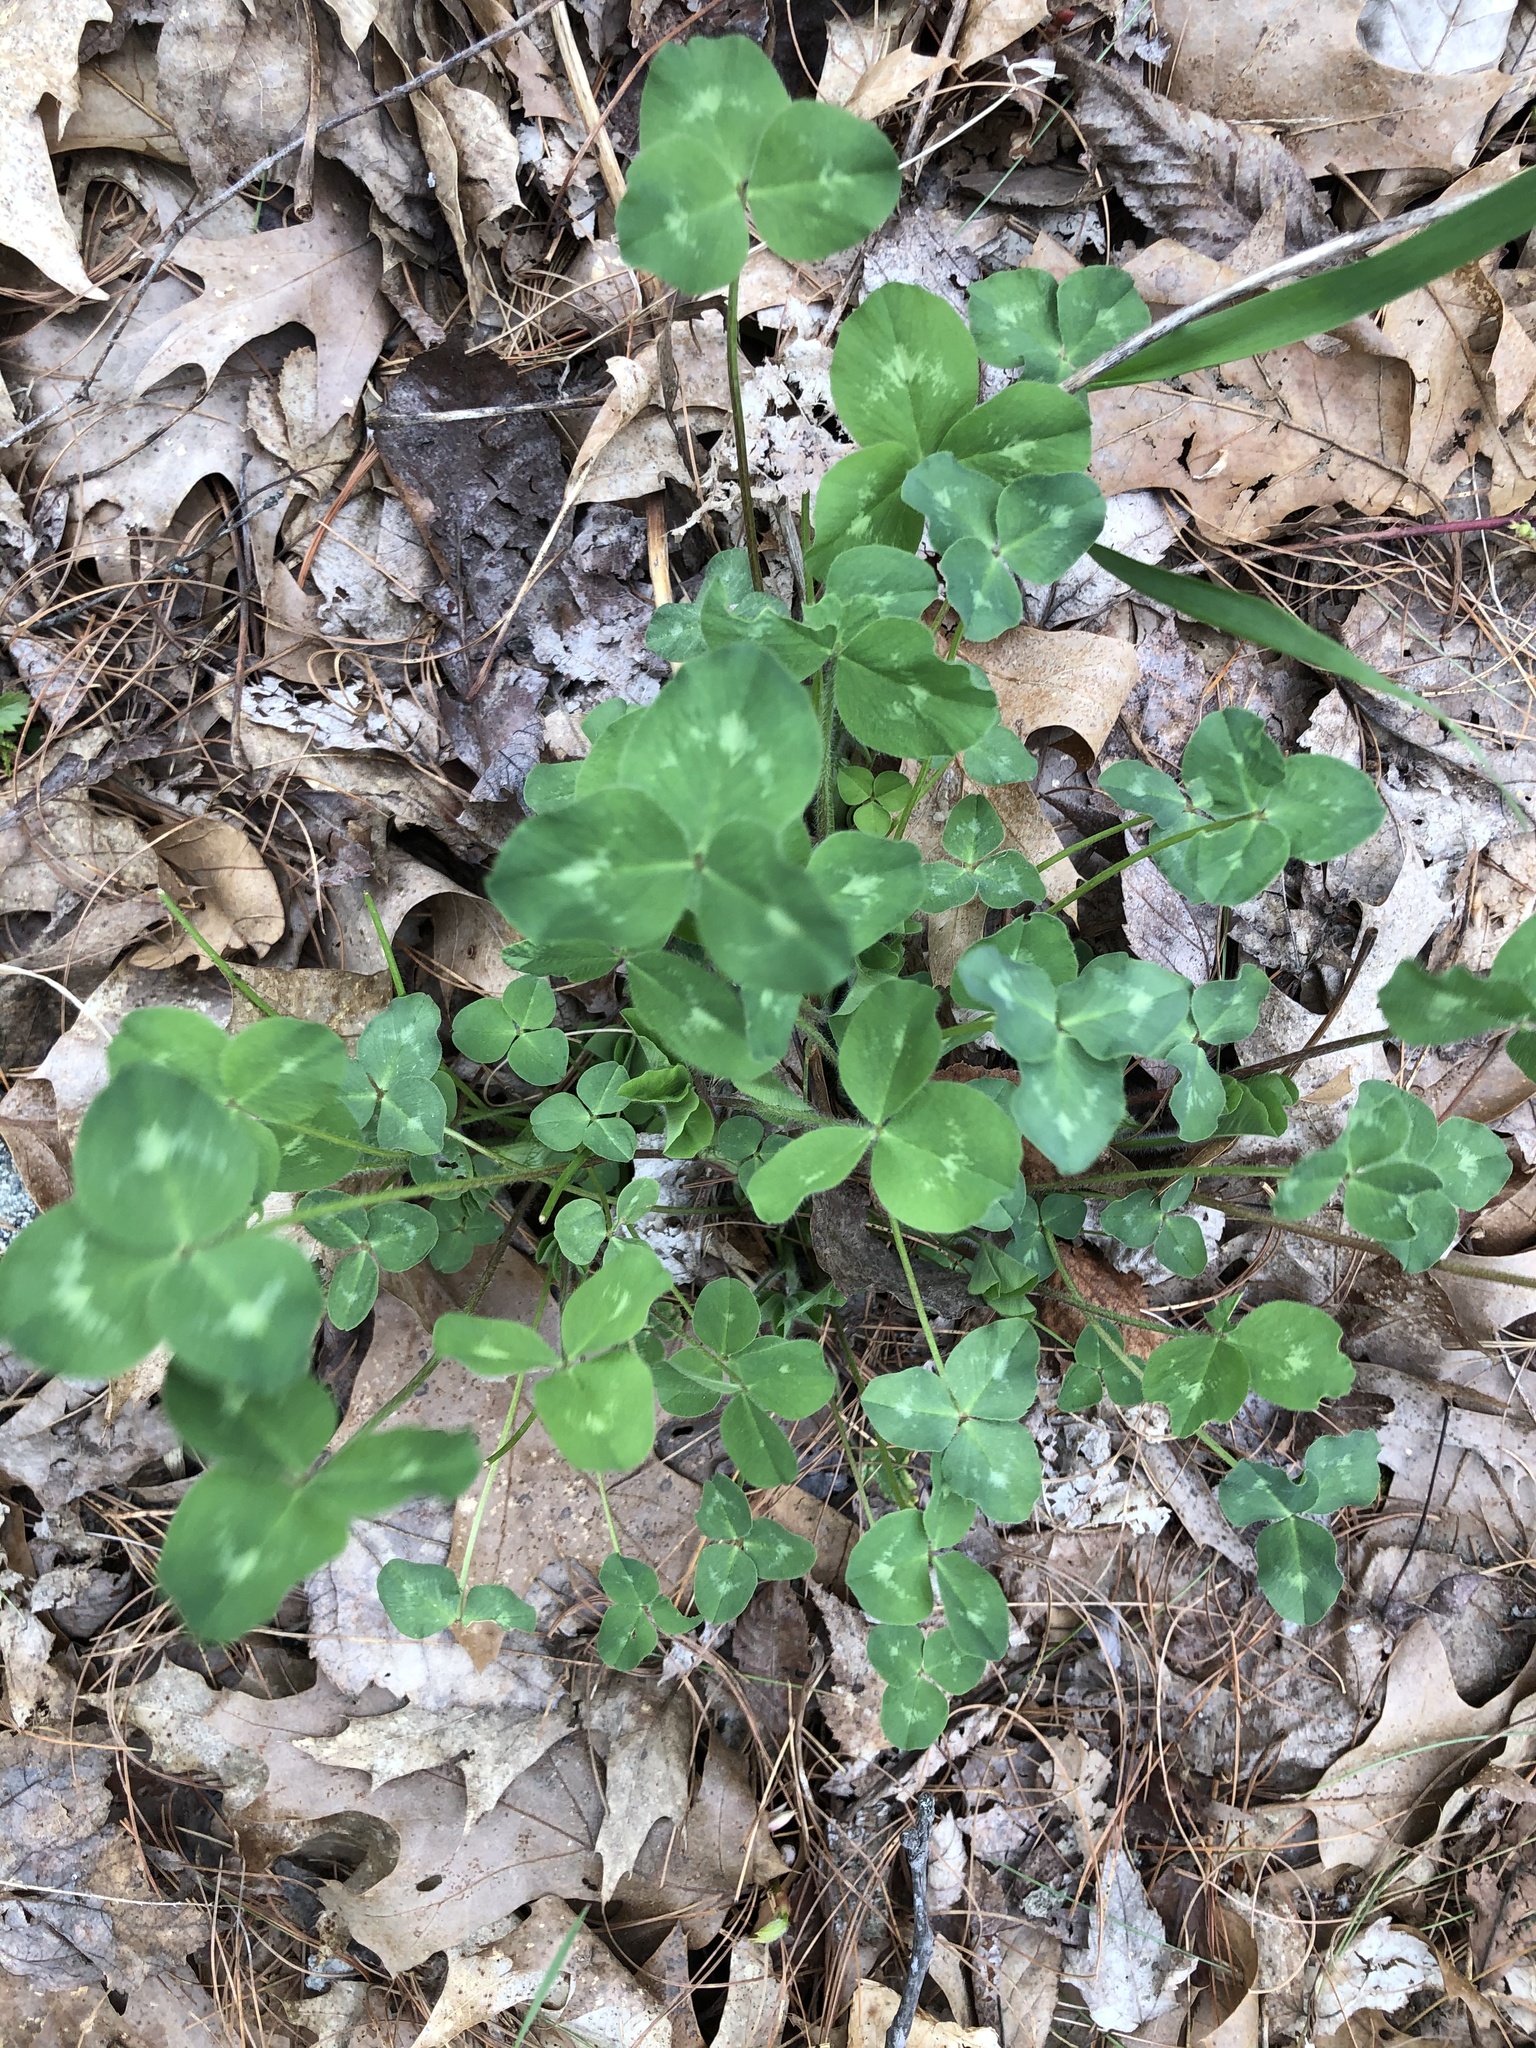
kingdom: Plantae
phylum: Tracheophyta
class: Magnoliopsida
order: Fabales
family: Fabaceae
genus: Trifolium
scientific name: Trifolium pratense
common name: Red clover
